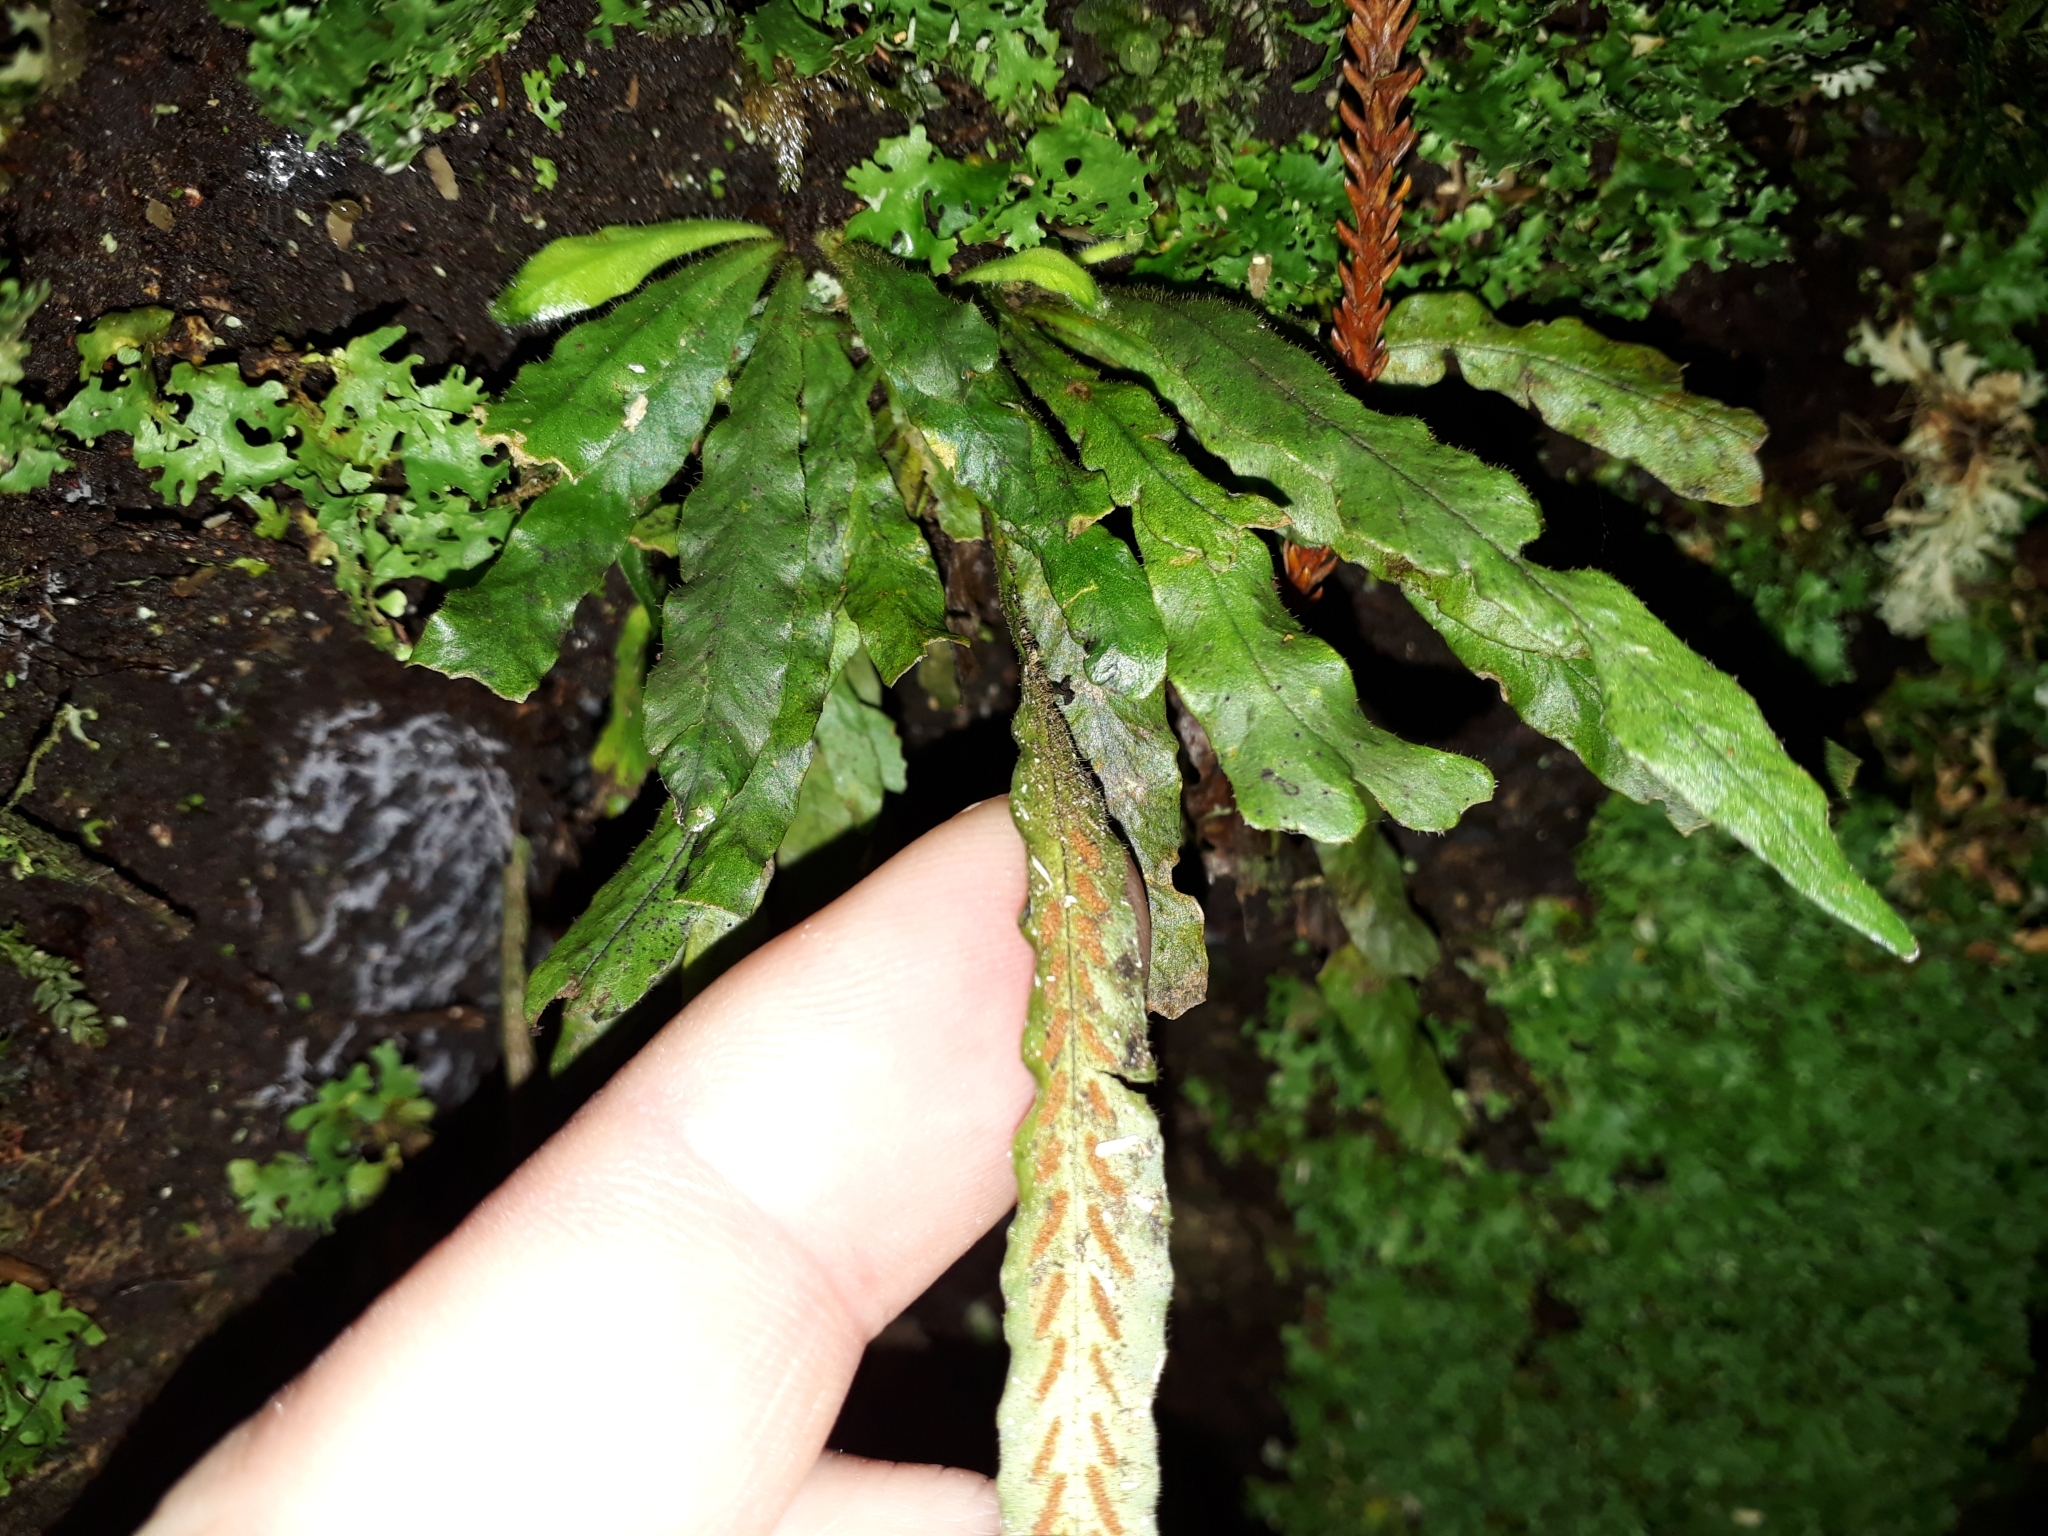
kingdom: Plantae
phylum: Tracheophyta
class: Polypodiopsida
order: Polypodiales
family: Polypodiaceae
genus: Notogrammitis
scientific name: Notogrammitis pseudociliata
